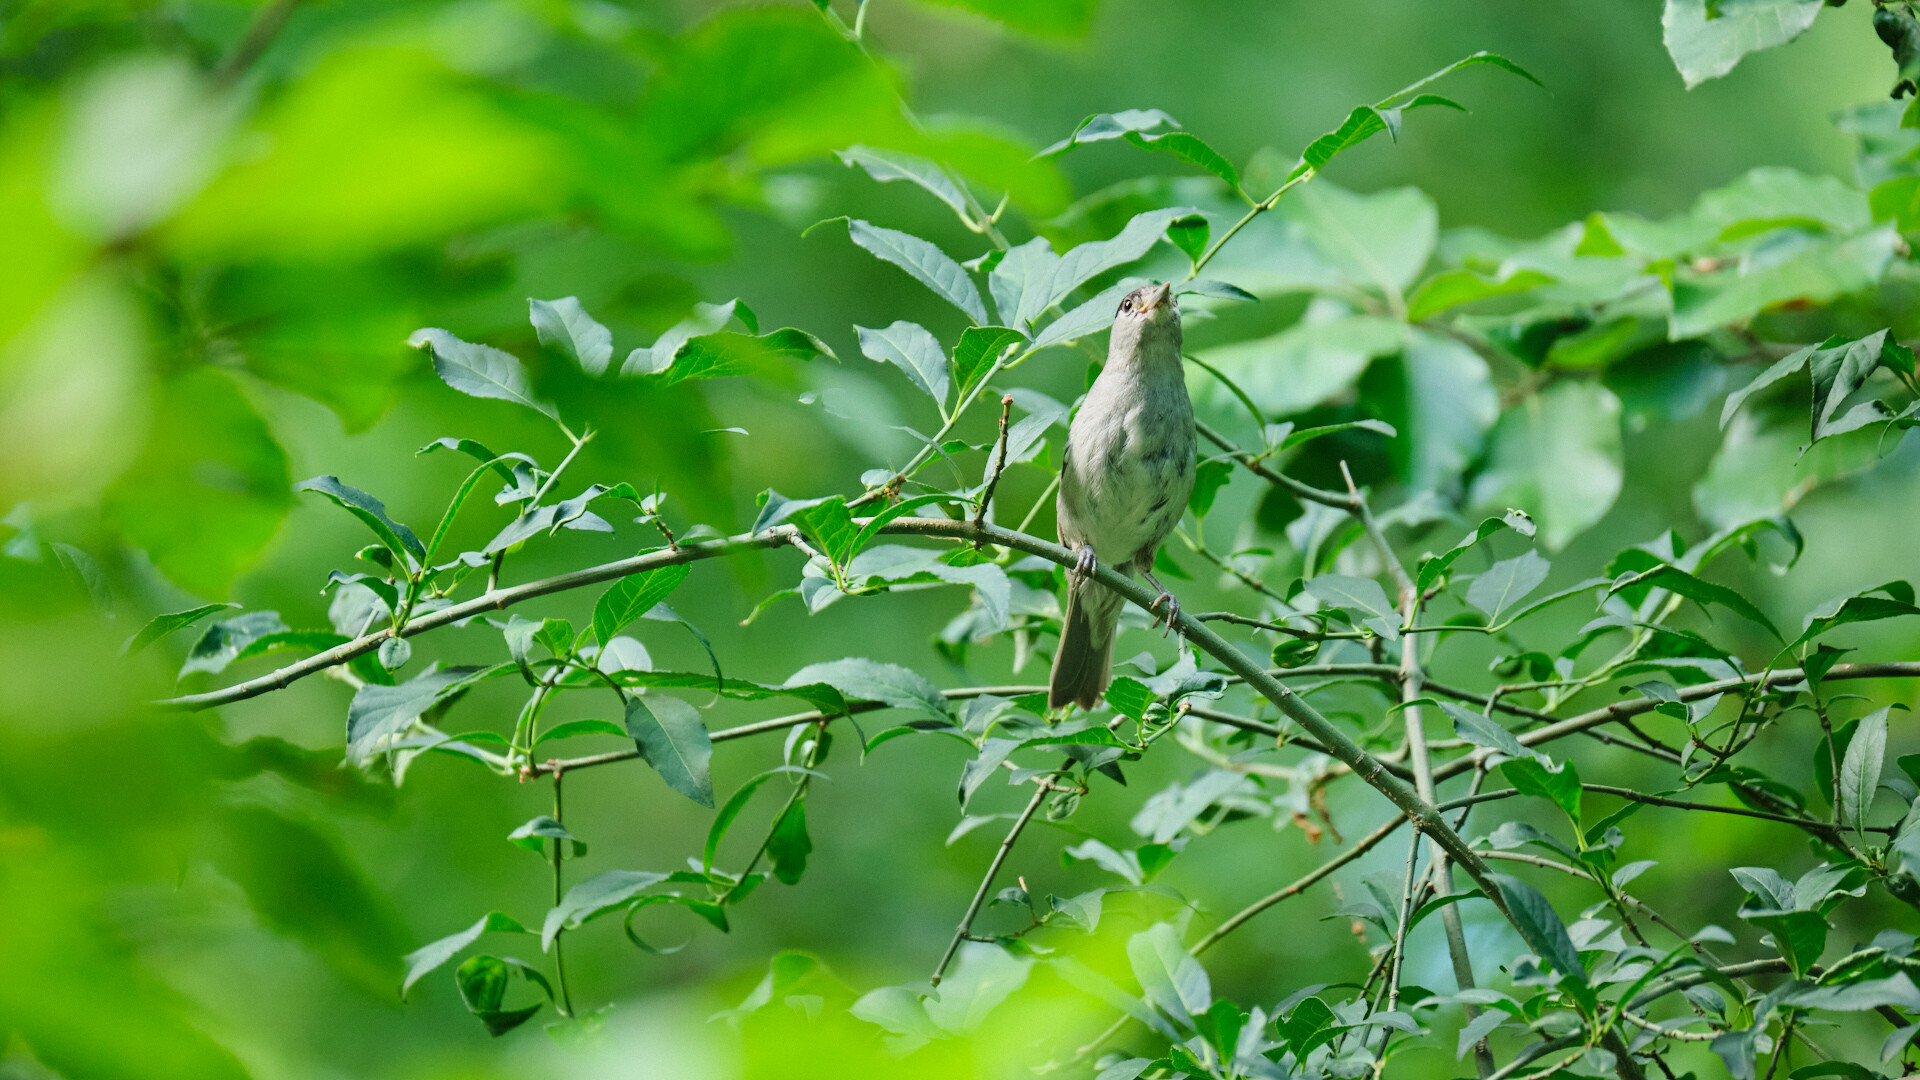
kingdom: Animalia
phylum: Chordata
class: Aves
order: Passeriformes
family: Sylviidae
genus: Sylvia
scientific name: Sylvia atricapilla
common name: Eurasian blackcap
